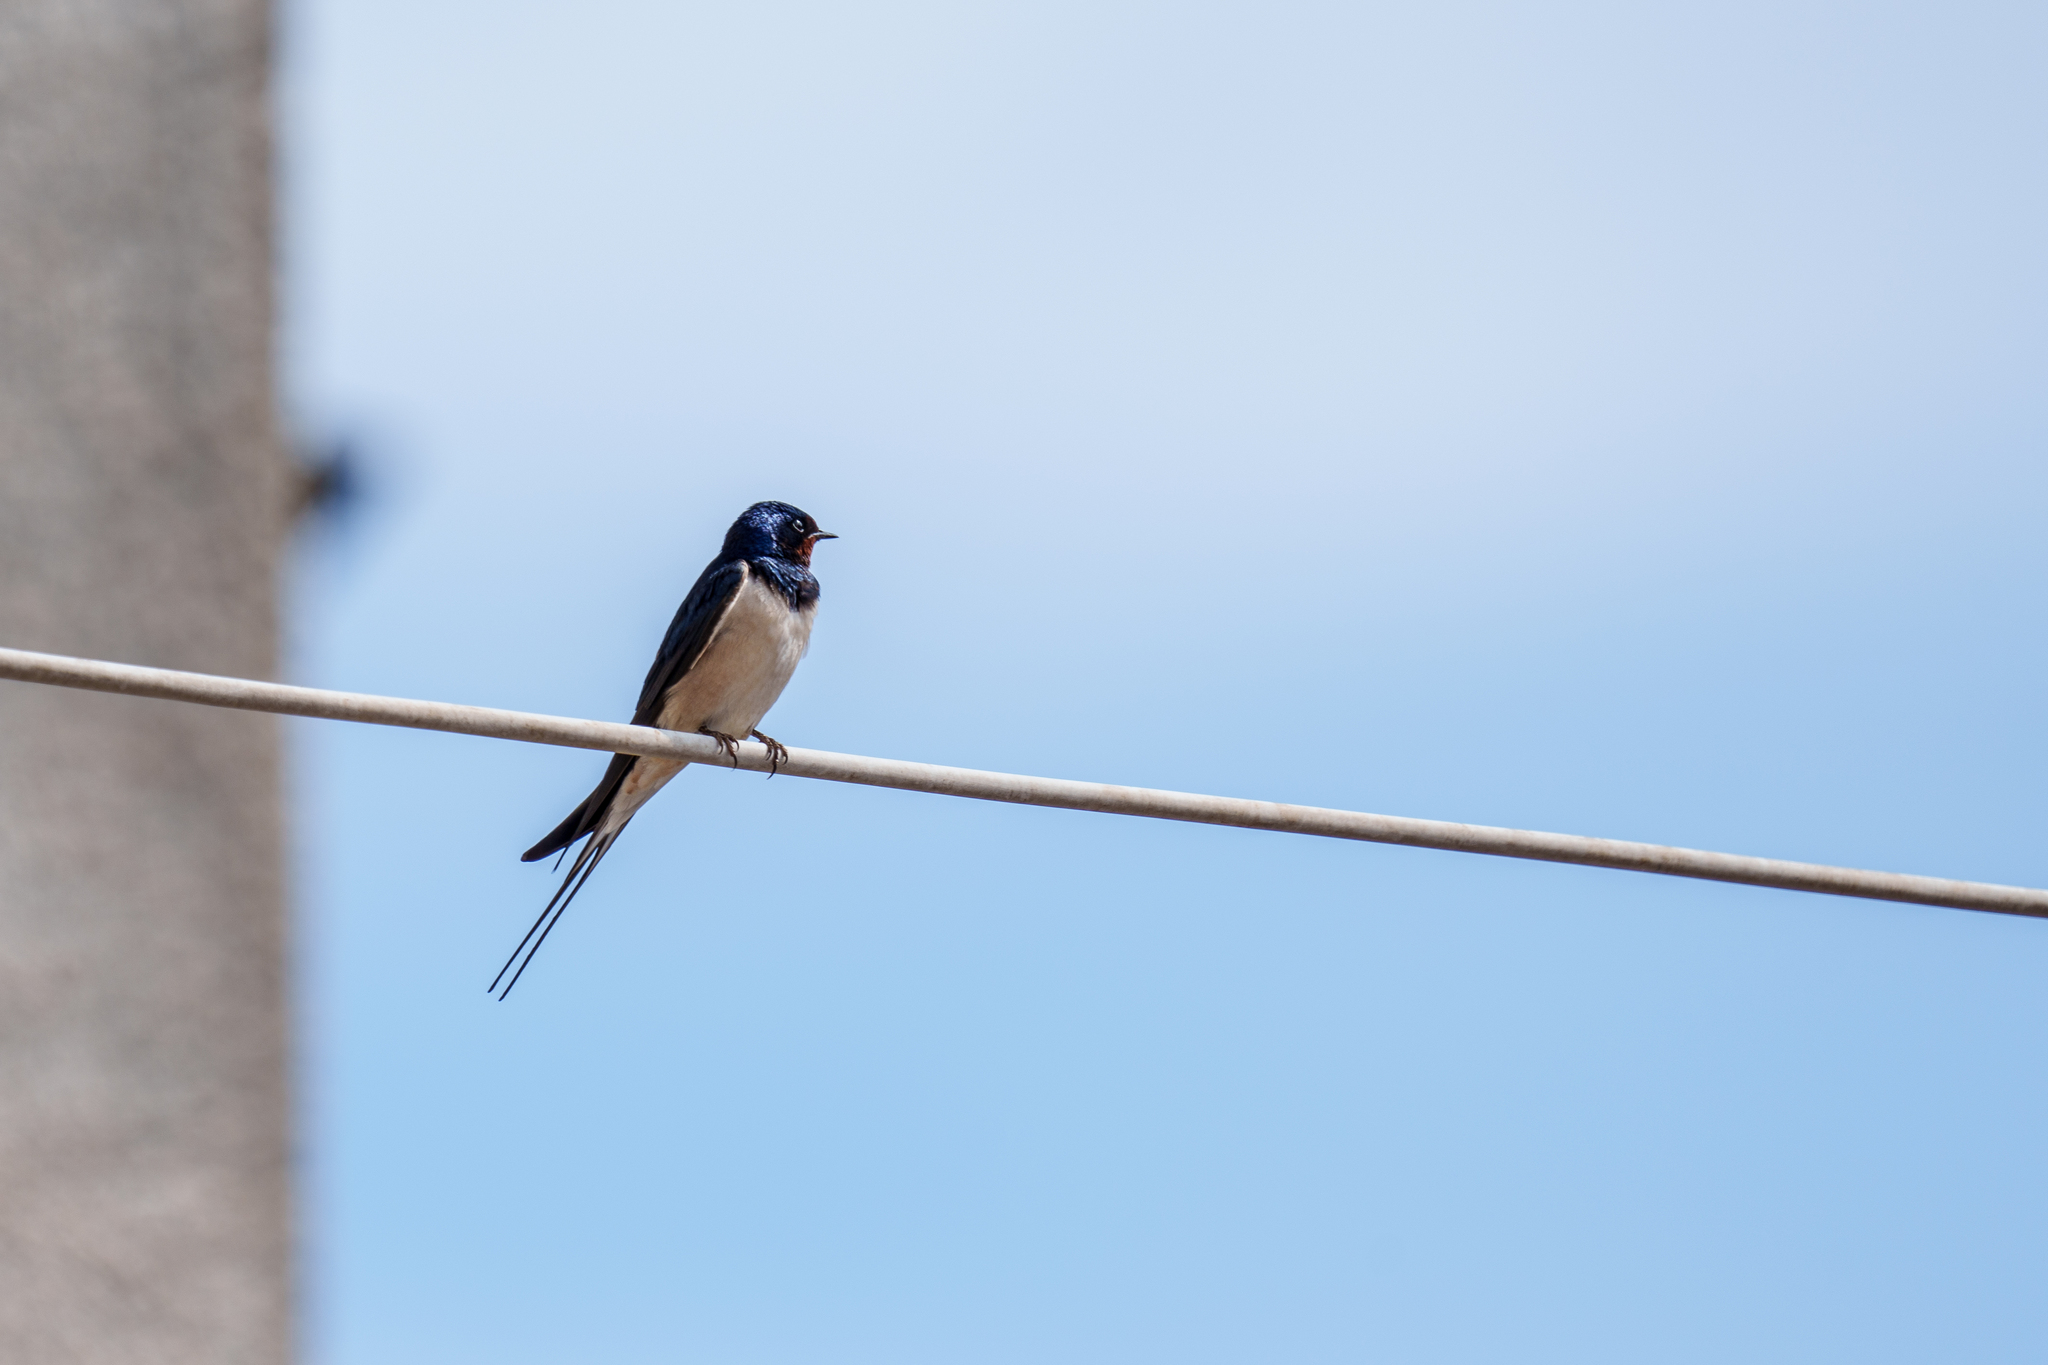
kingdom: Animalia
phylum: Chordata
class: Aves
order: Passeriformes
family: Hirundinidae
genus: Hirundo
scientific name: Hirundo rustica
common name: Barn swallow
